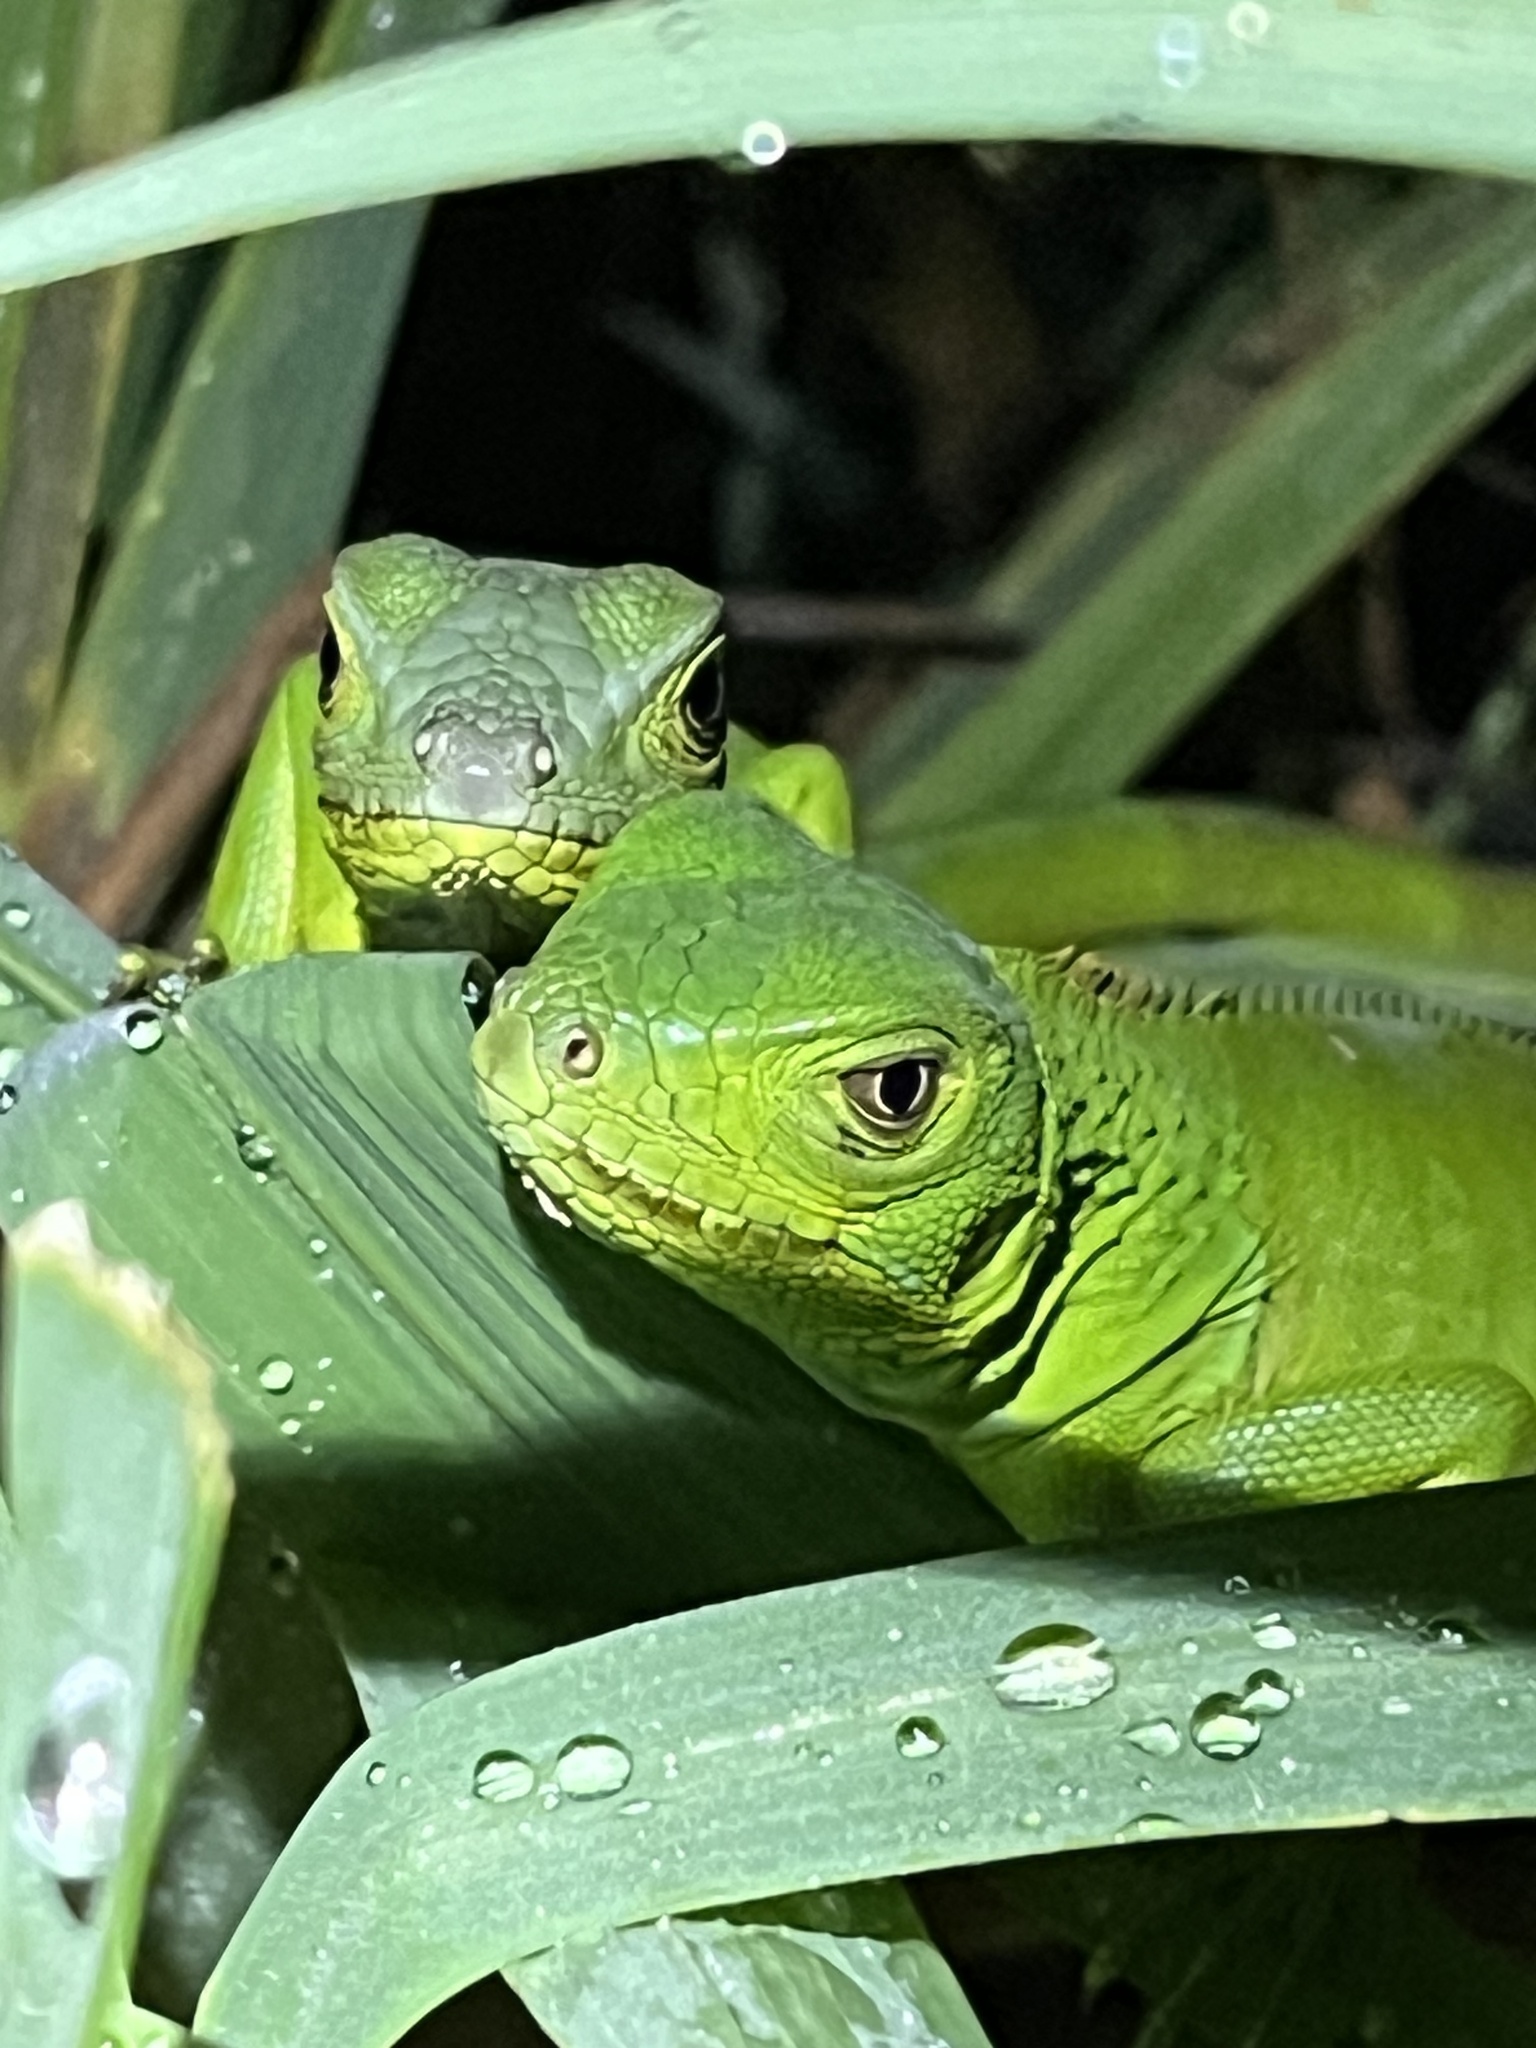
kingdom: Animalia
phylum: Chordata
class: Squamata
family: Iguanidae
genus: Iguana
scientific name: Iguana iguana
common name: Green iguana
